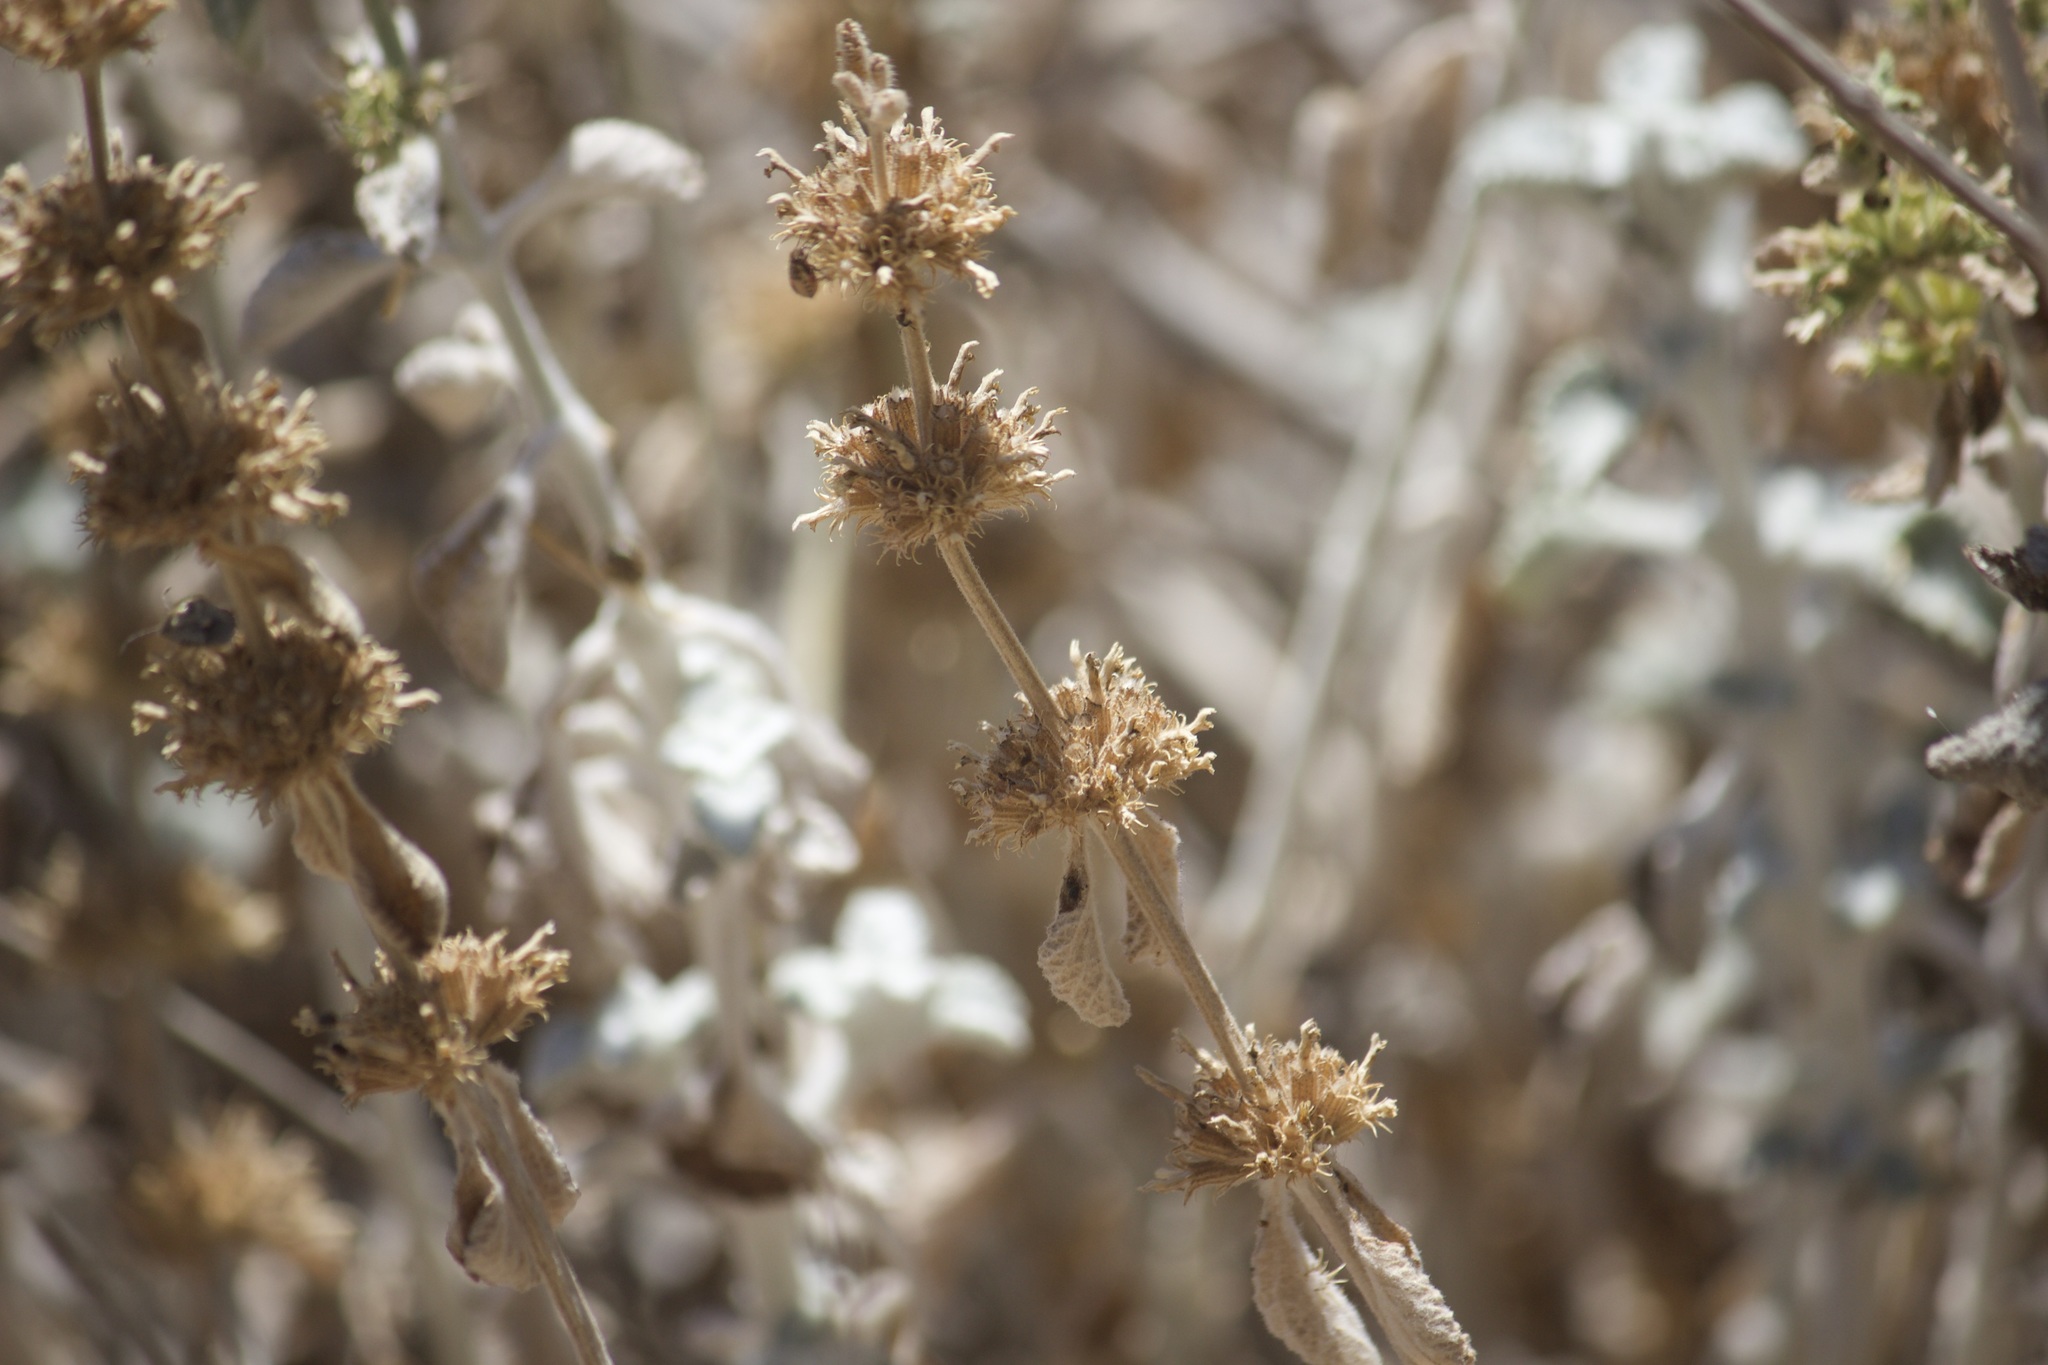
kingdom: Plantae
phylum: Tracheophyta
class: Magnoliopsida
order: Lamiales
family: Lamiaceae
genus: Marrubium
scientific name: Marrubium vulgare
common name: Horehound
